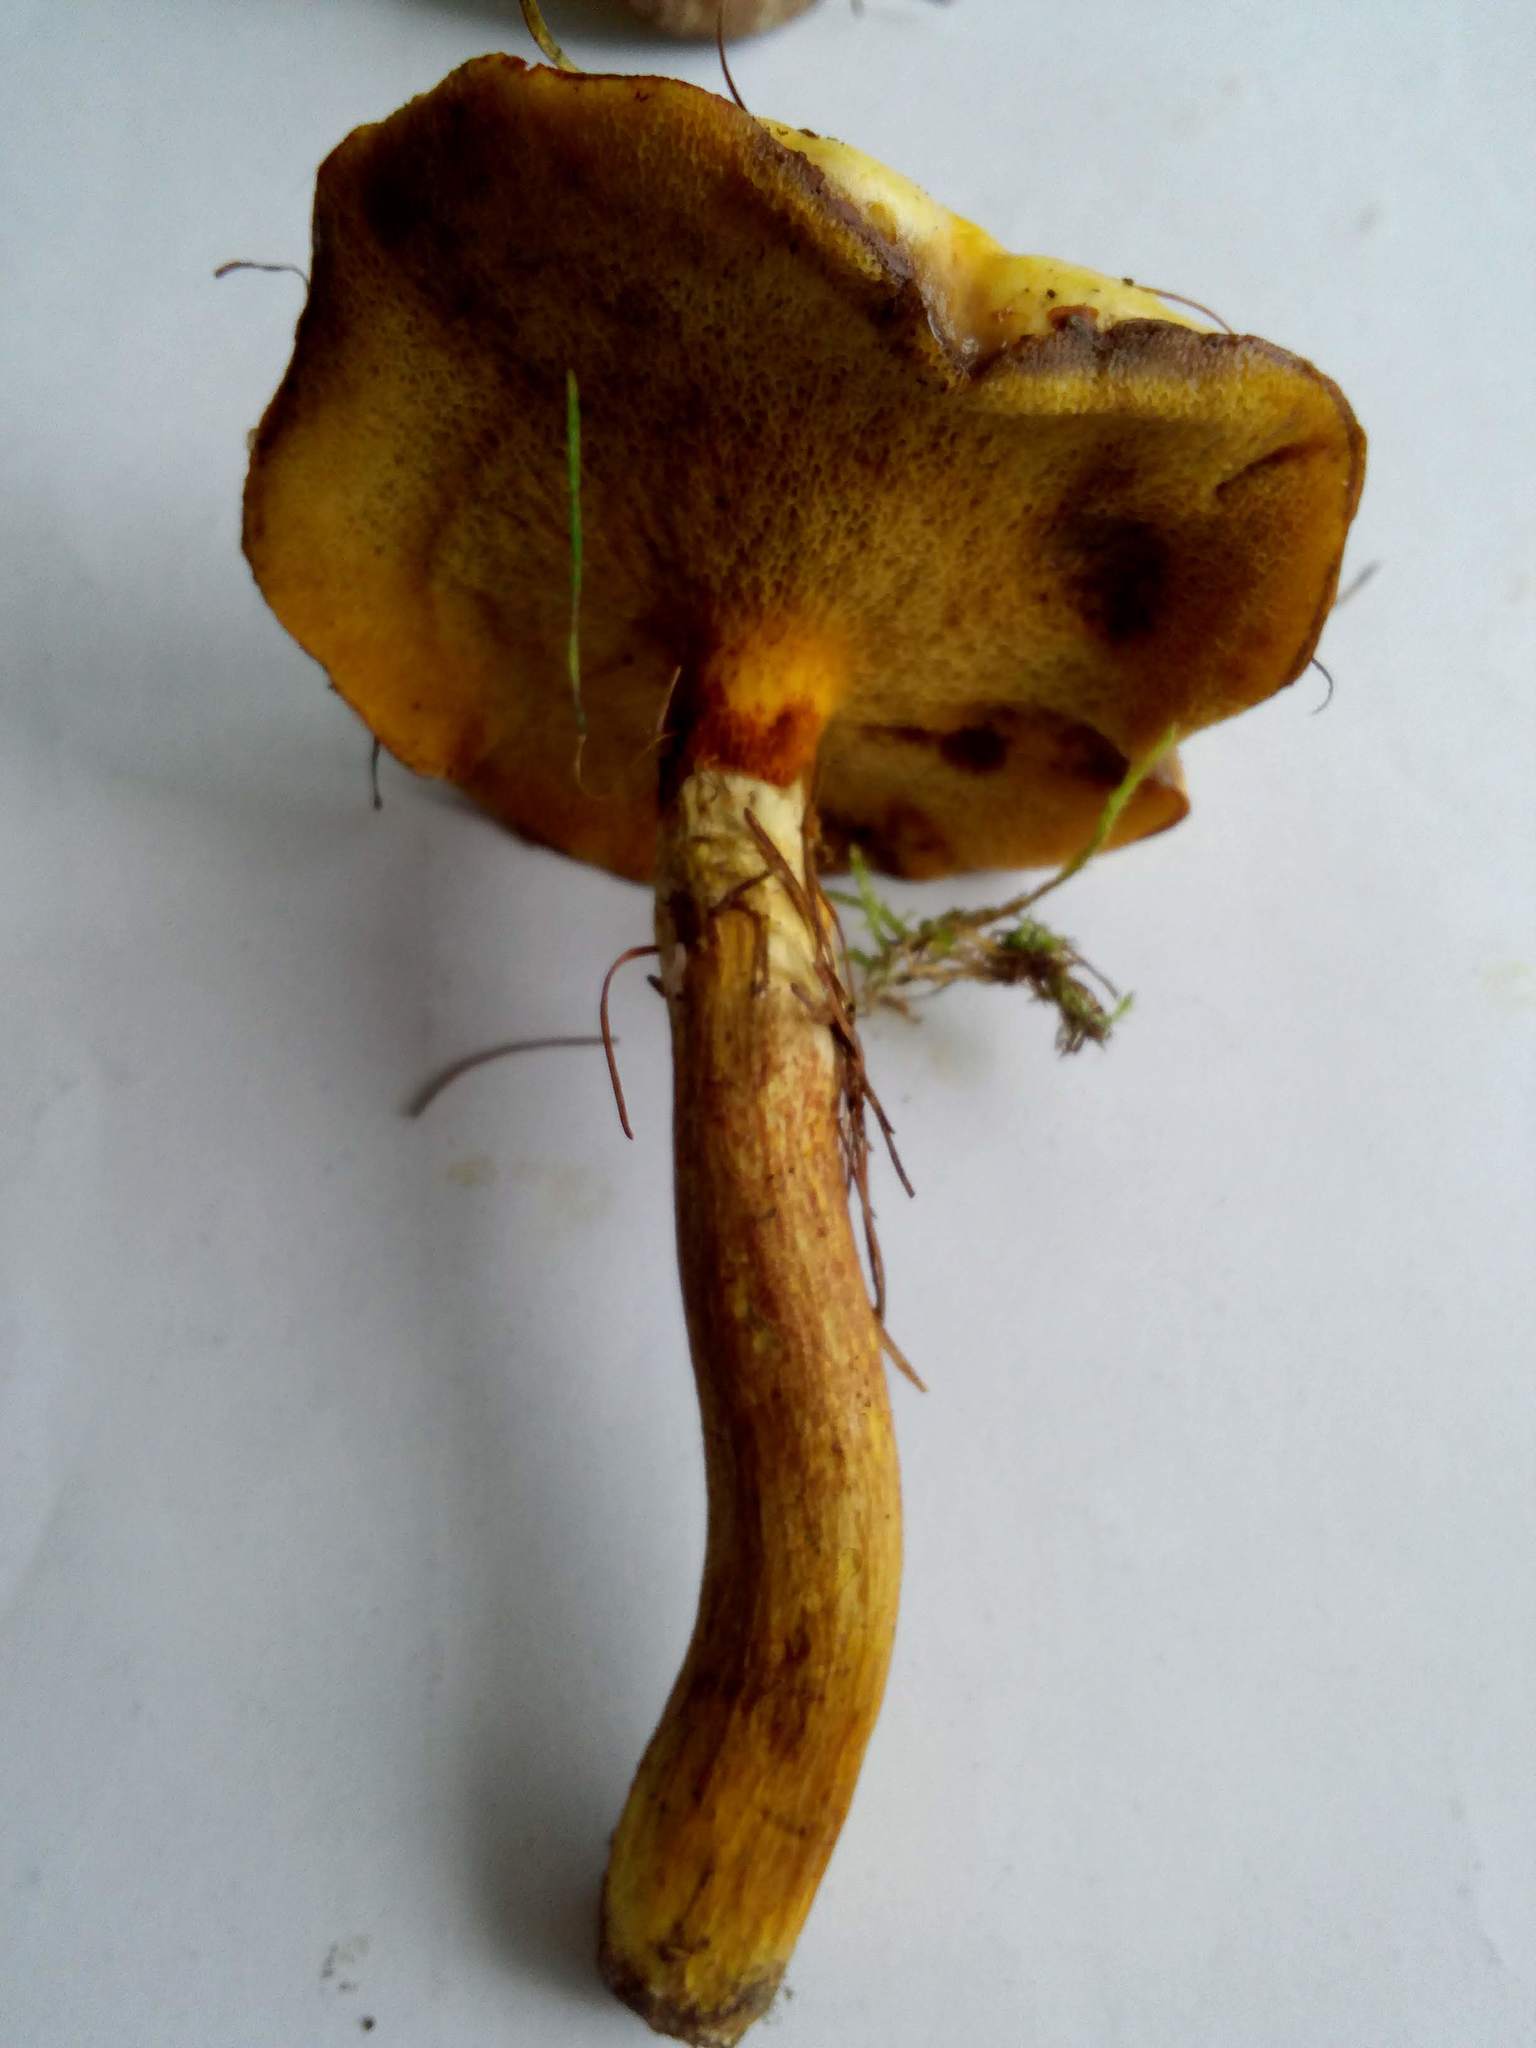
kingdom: Fungi
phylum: Basidiomycota
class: Agaricomycetes
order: Boletales
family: Suillaceae
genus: Suillus
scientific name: Suillus grevillei
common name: Larch bolete
